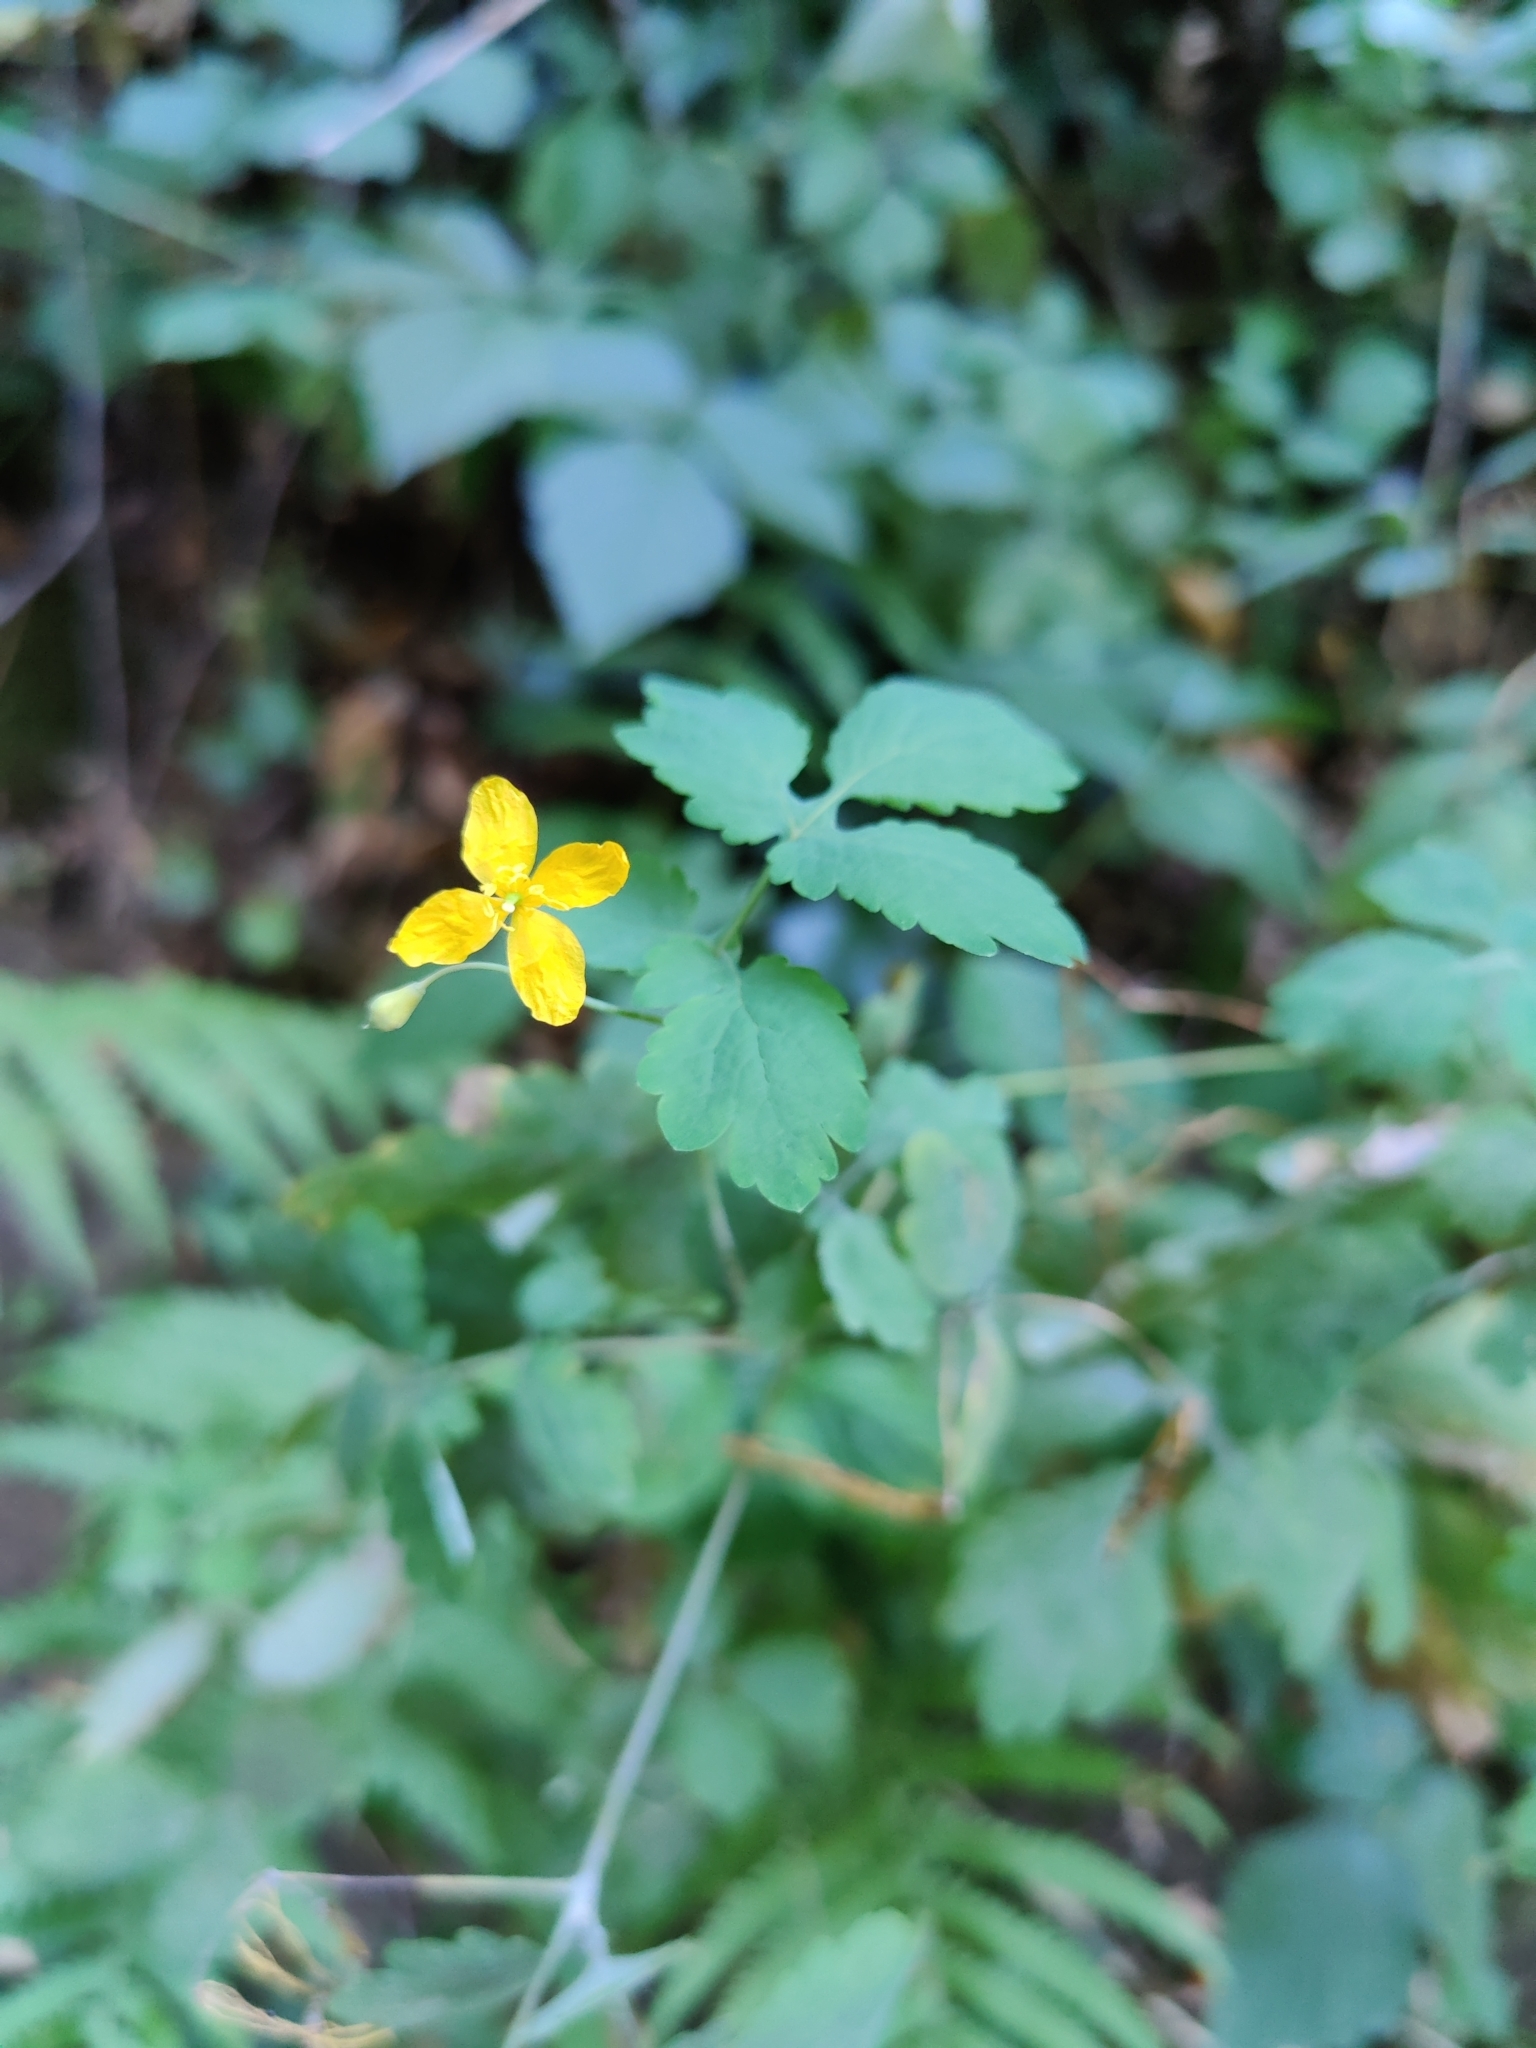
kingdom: Plantae
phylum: Tracheophyta
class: Magnoliopsida
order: Ranunculales
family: Papaveraceae
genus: Chelidonium
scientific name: Chelidonium majus
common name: Greater celandine
